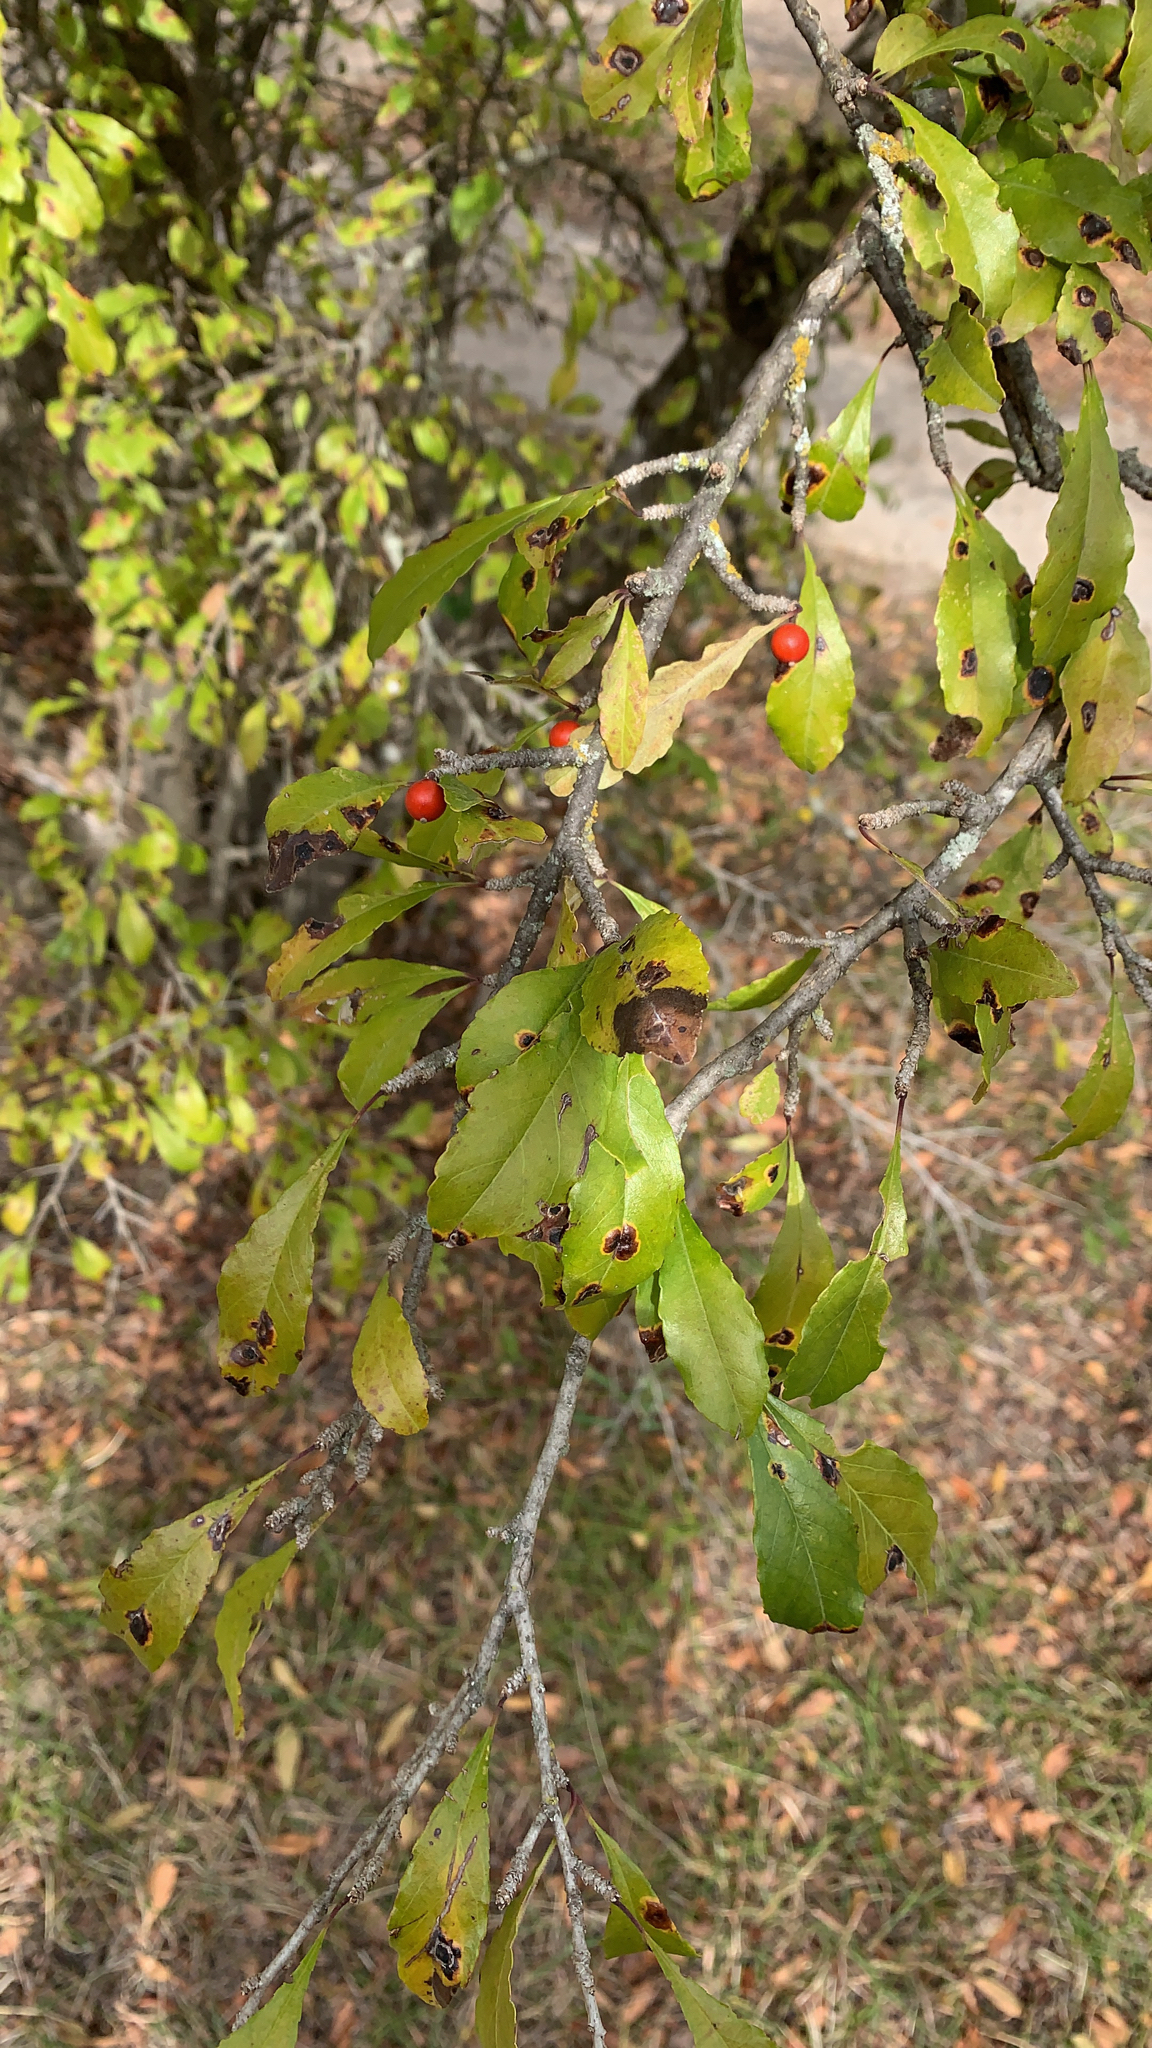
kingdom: Plantae
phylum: Tracheophyta
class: Magnoliopsida
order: Aquifoliales
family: Aquifoliaceae
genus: Ilex
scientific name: Ilex decidua
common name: Possum-haw
